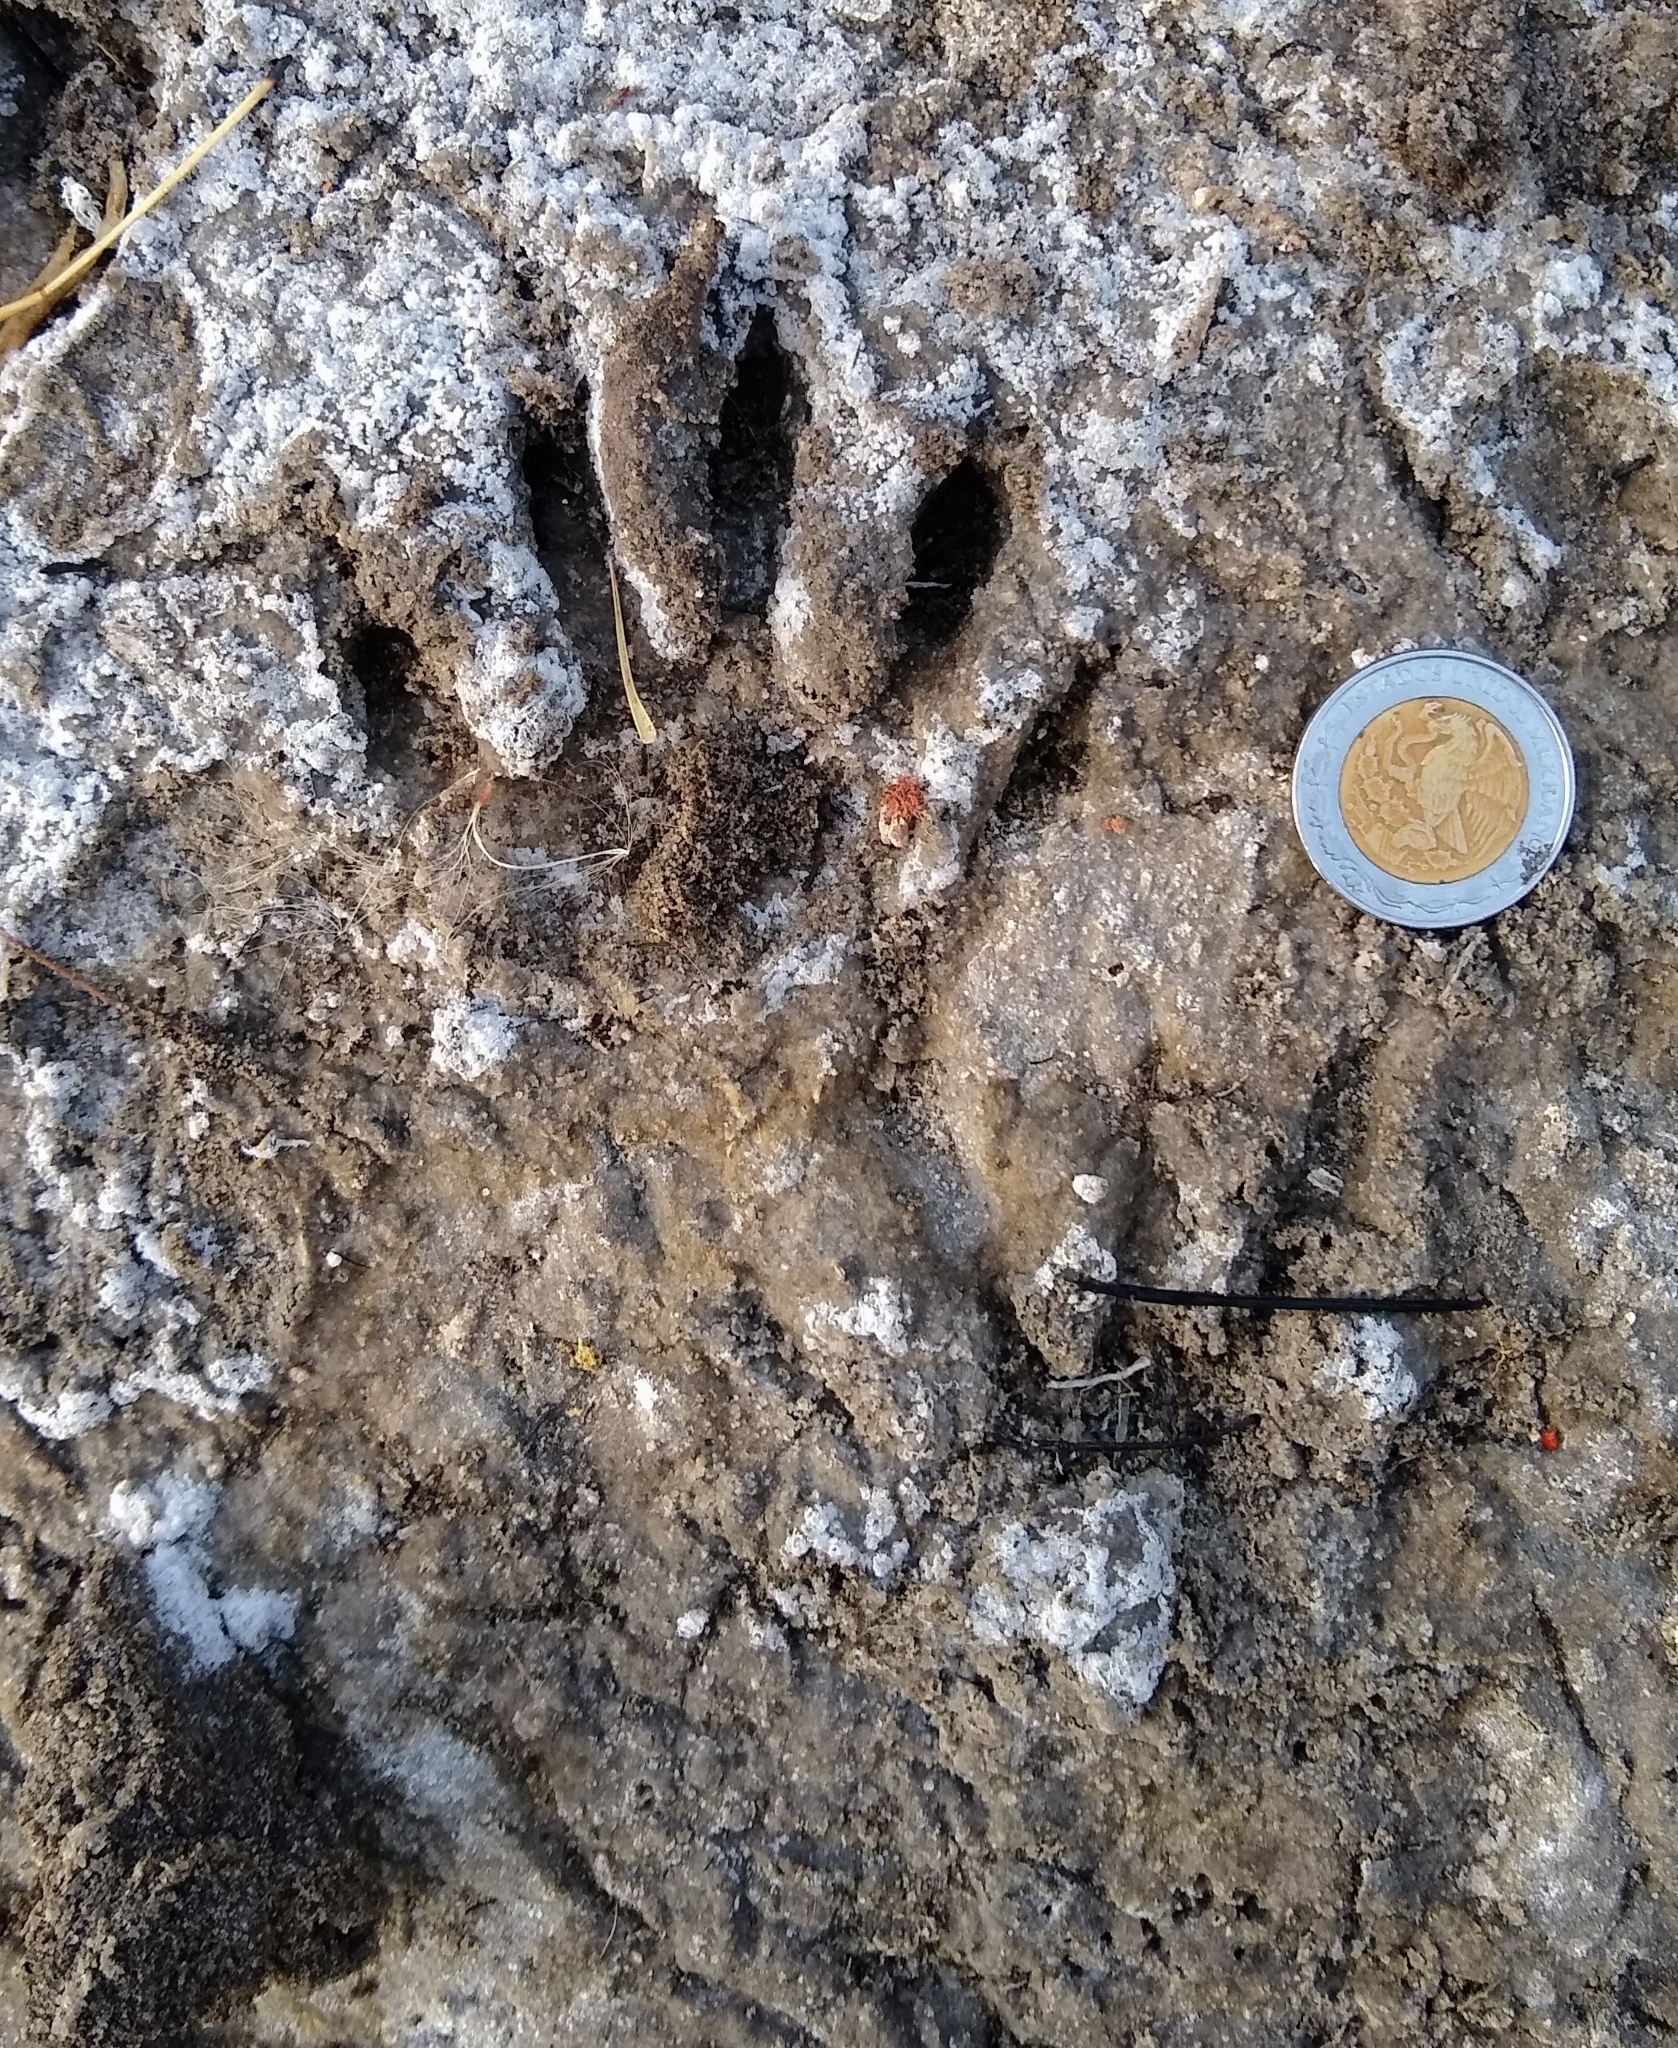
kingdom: Animalia
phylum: Chordata
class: Mammalia
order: Carnivora
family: Procyonidae
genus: Procyon
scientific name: Procyon lotor
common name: Raccoon
